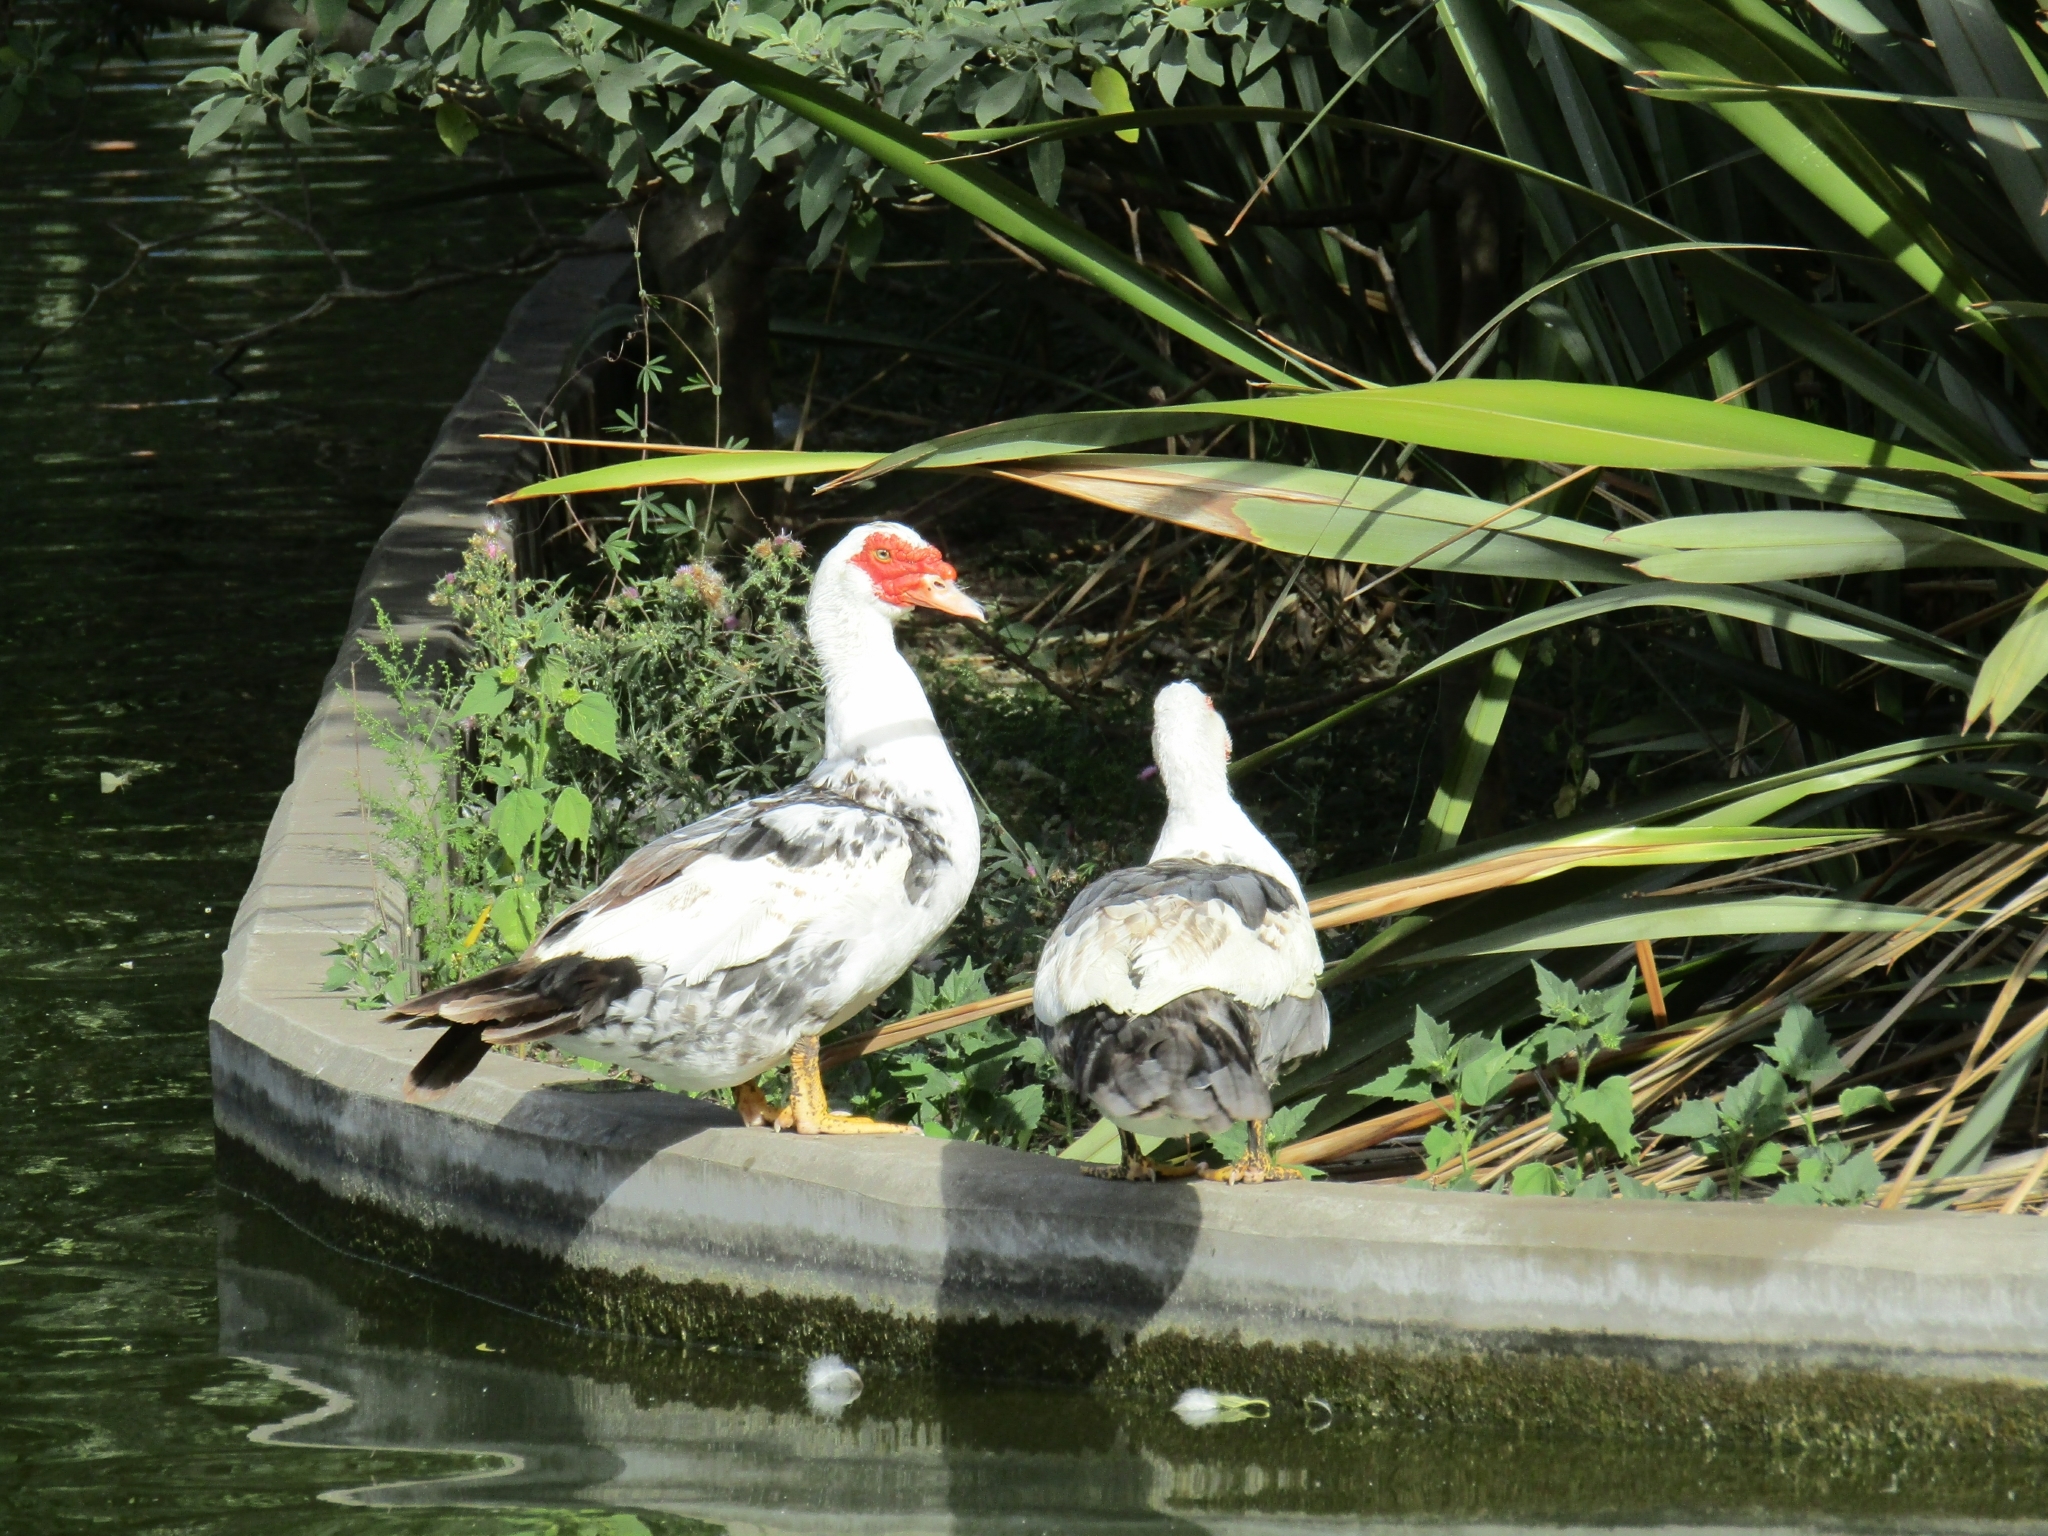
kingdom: Animalia
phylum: Chordata
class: Aves
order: Anseriformes
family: Anatidae
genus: Cairina
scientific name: Cairina moschata
